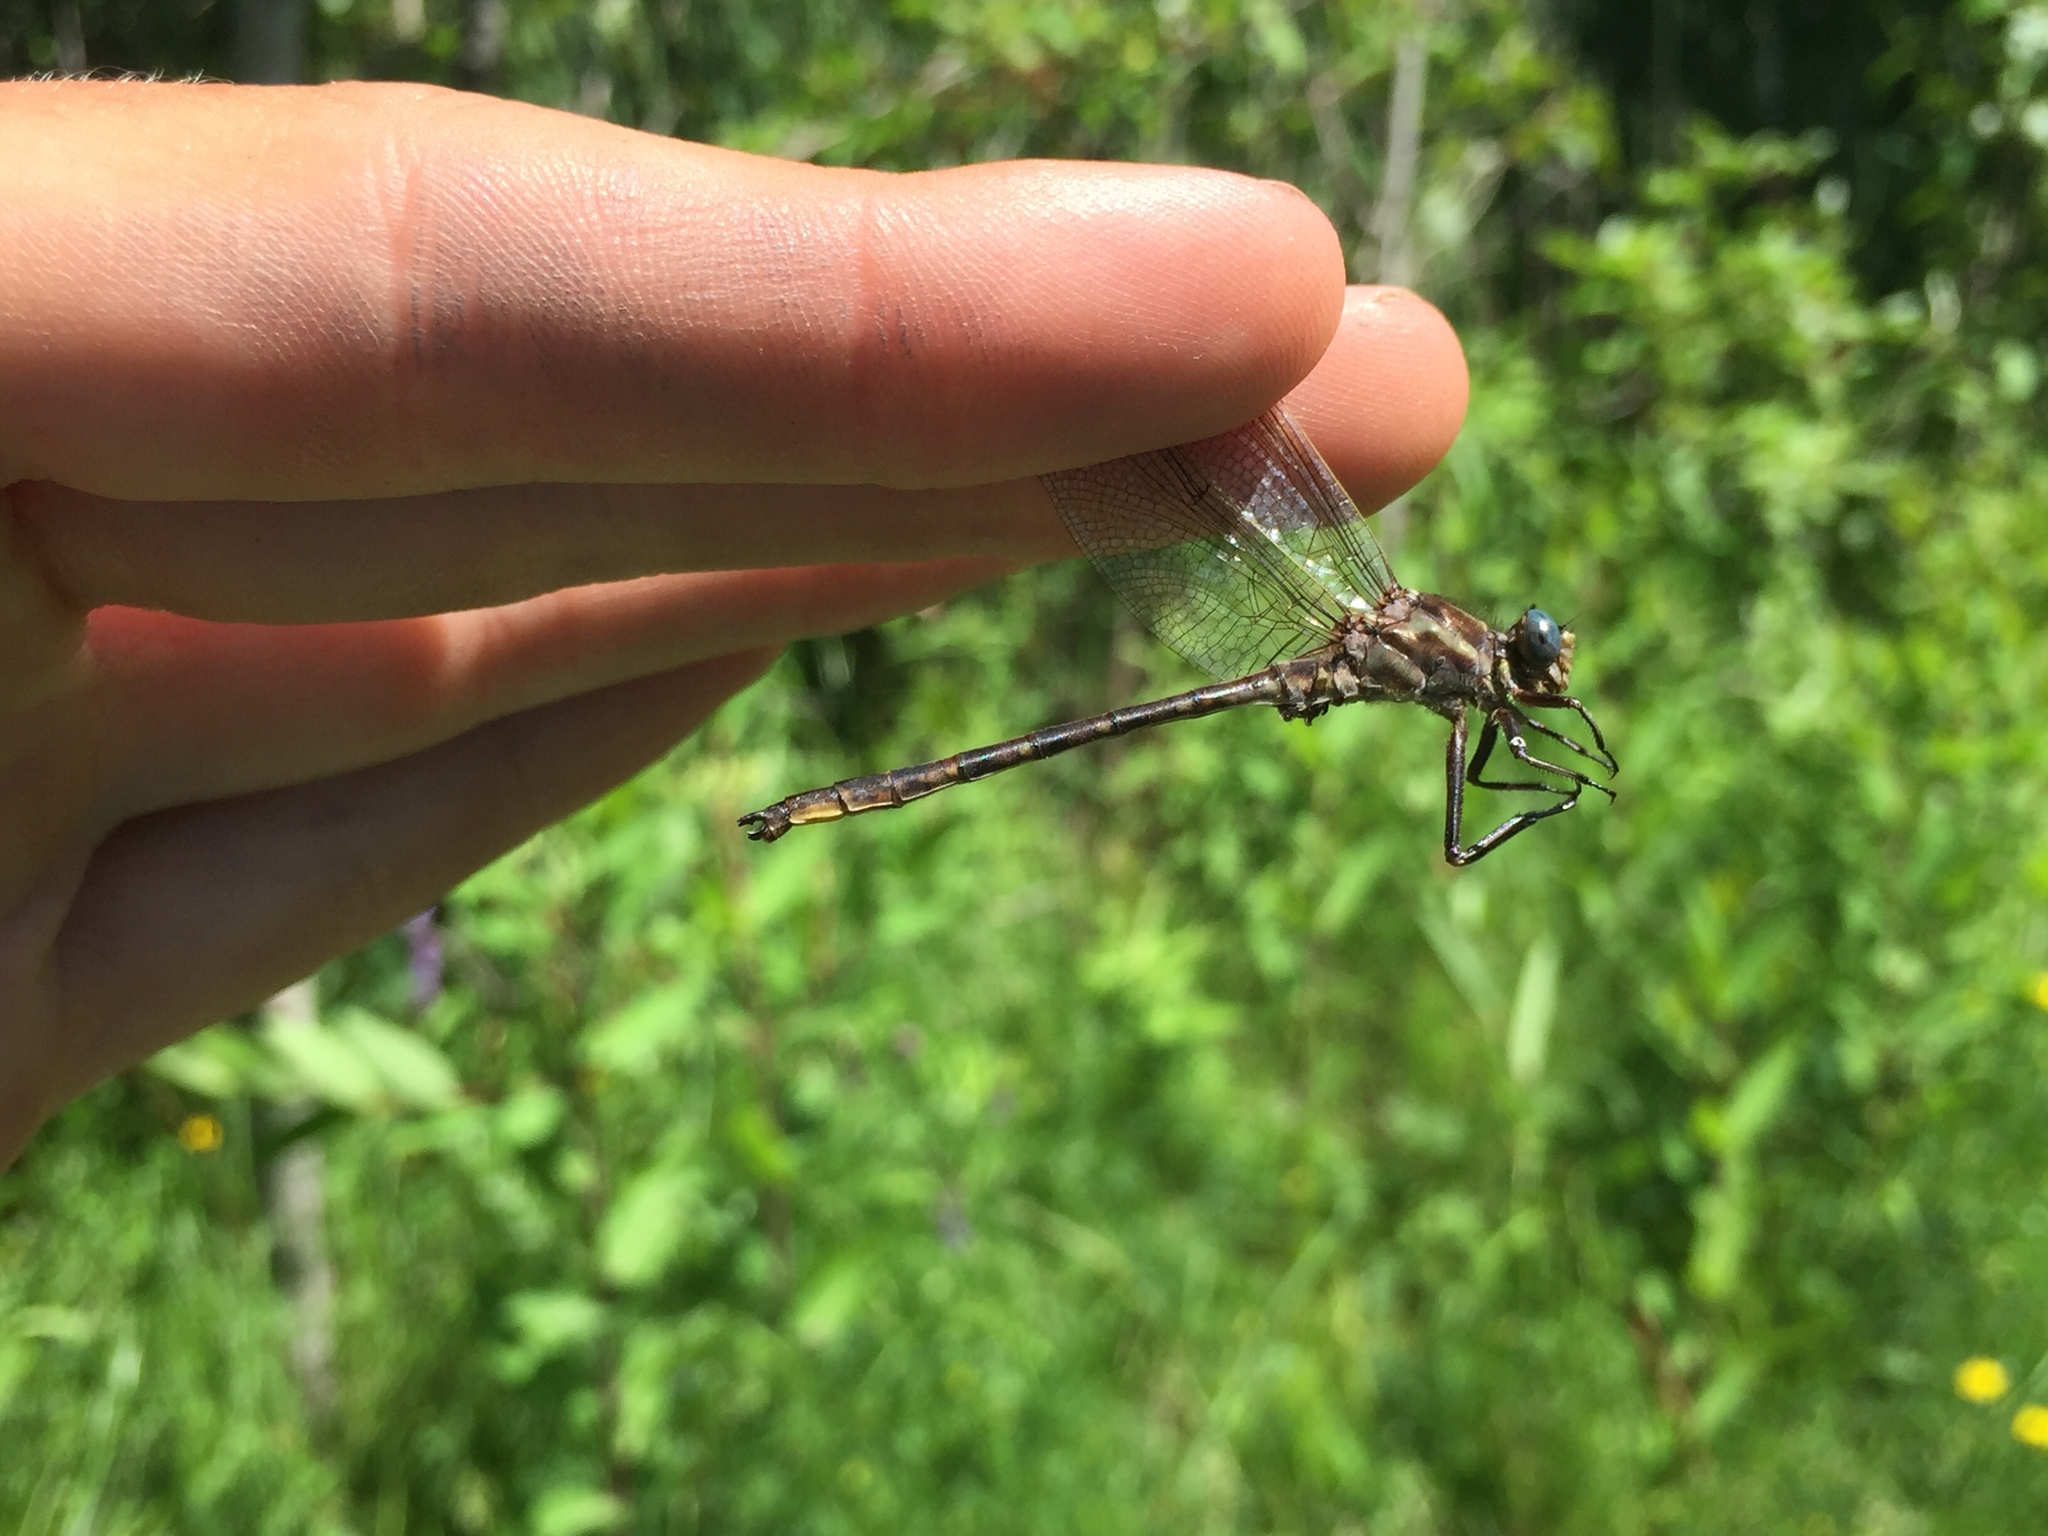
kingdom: Animalia
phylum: Arthropoda
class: Insecta
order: Odonata
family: Gomphidae
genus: Phanogomphus
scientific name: Phanogomphus spicatus
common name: Dusky clubtail
